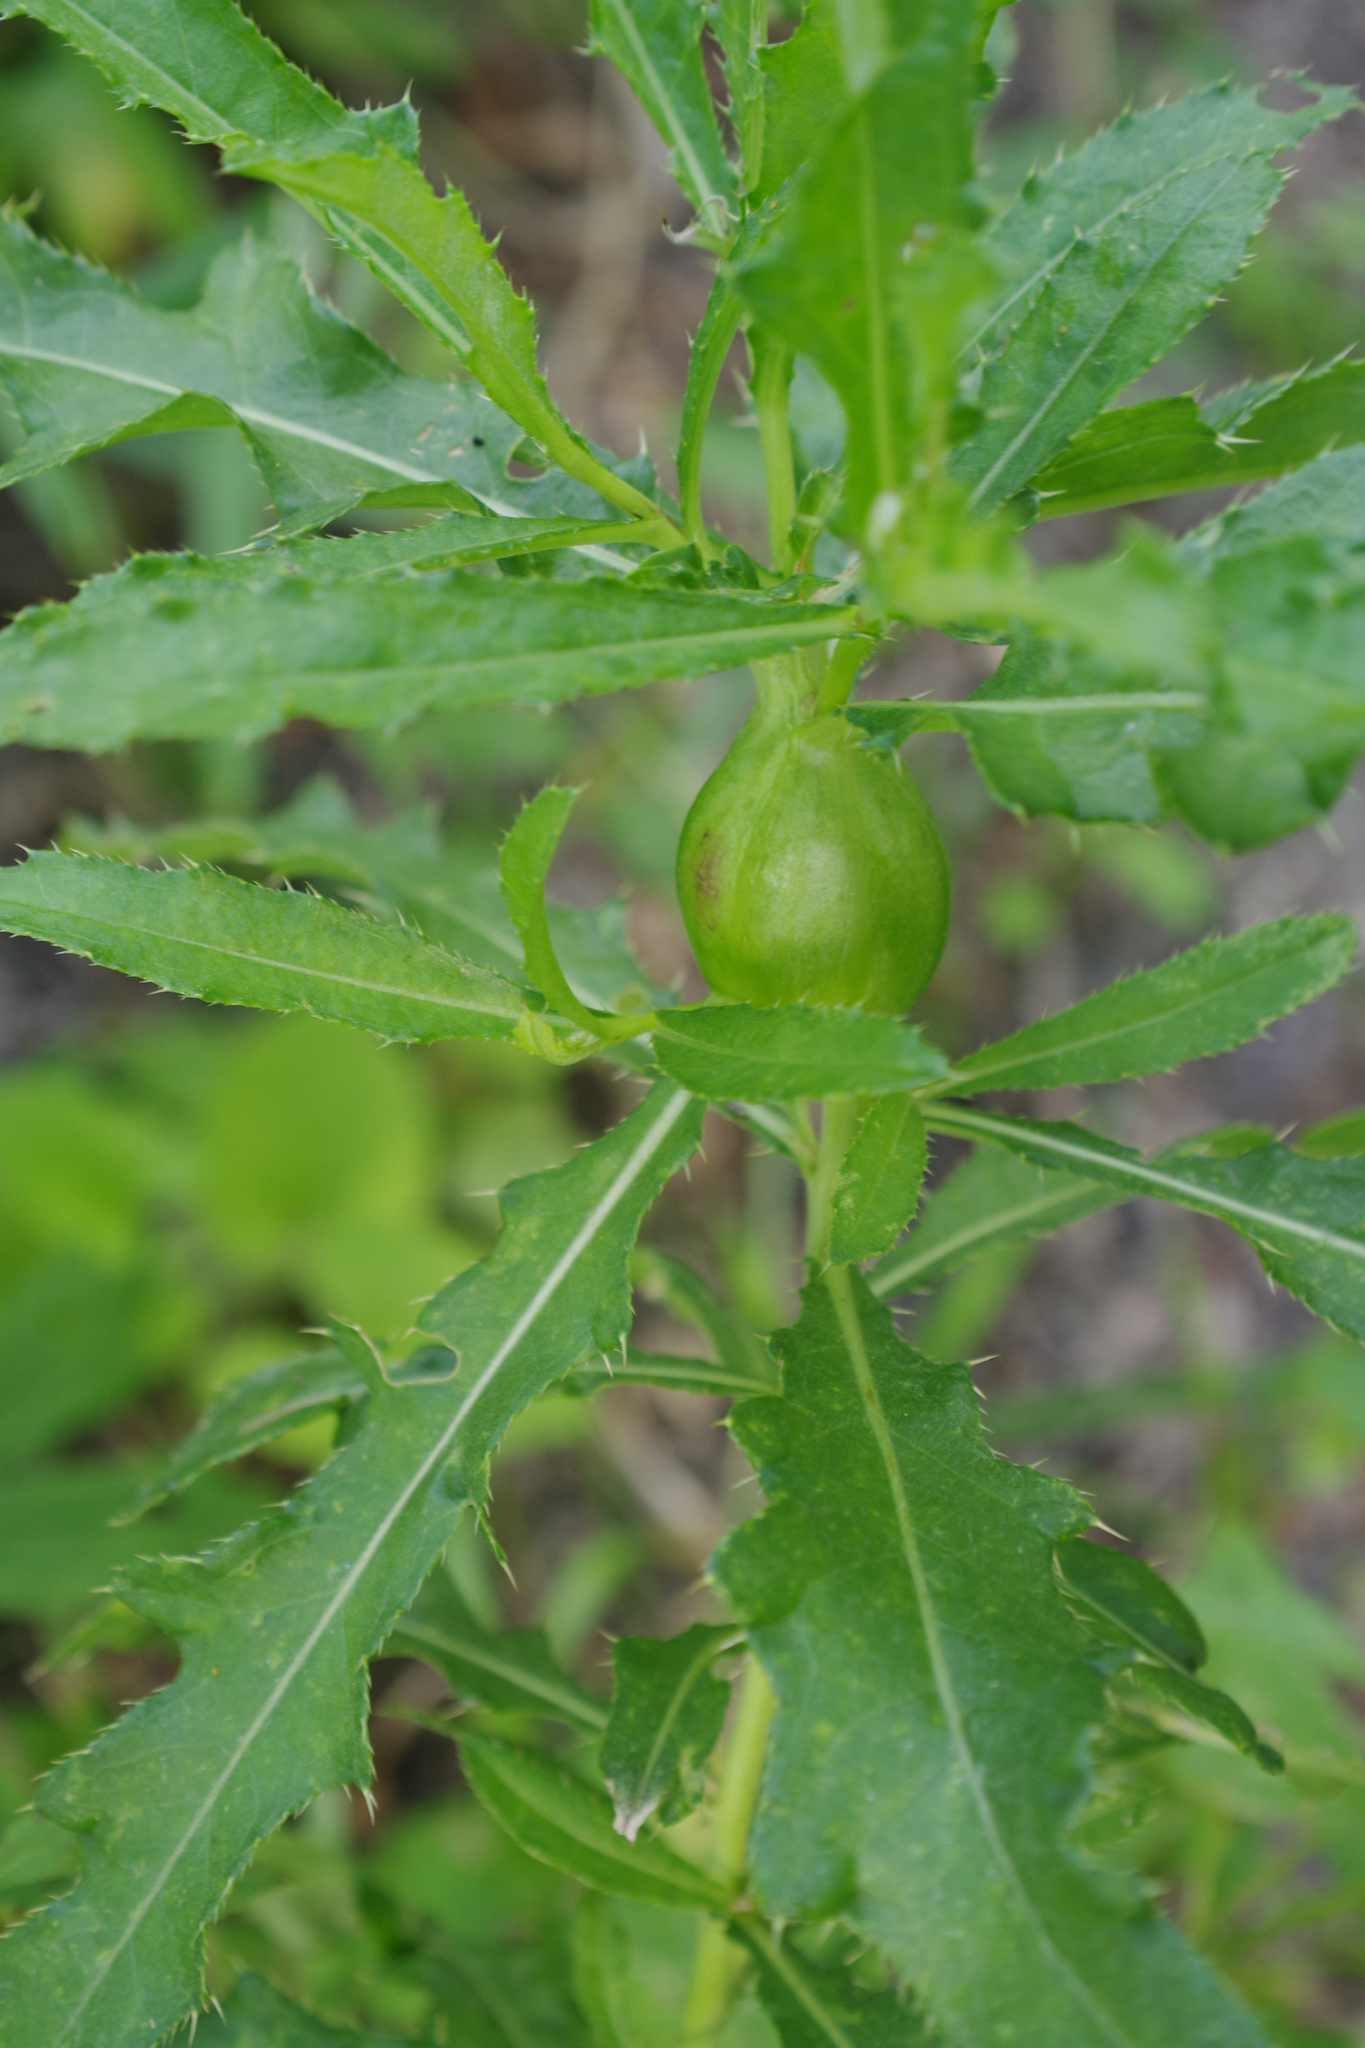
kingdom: Plantae
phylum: Tracheophyta
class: Magnoliopsida
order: Asterales
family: Asteraceae
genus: Cirsium
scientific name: Cirsium arvense
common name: Creeping thistle
